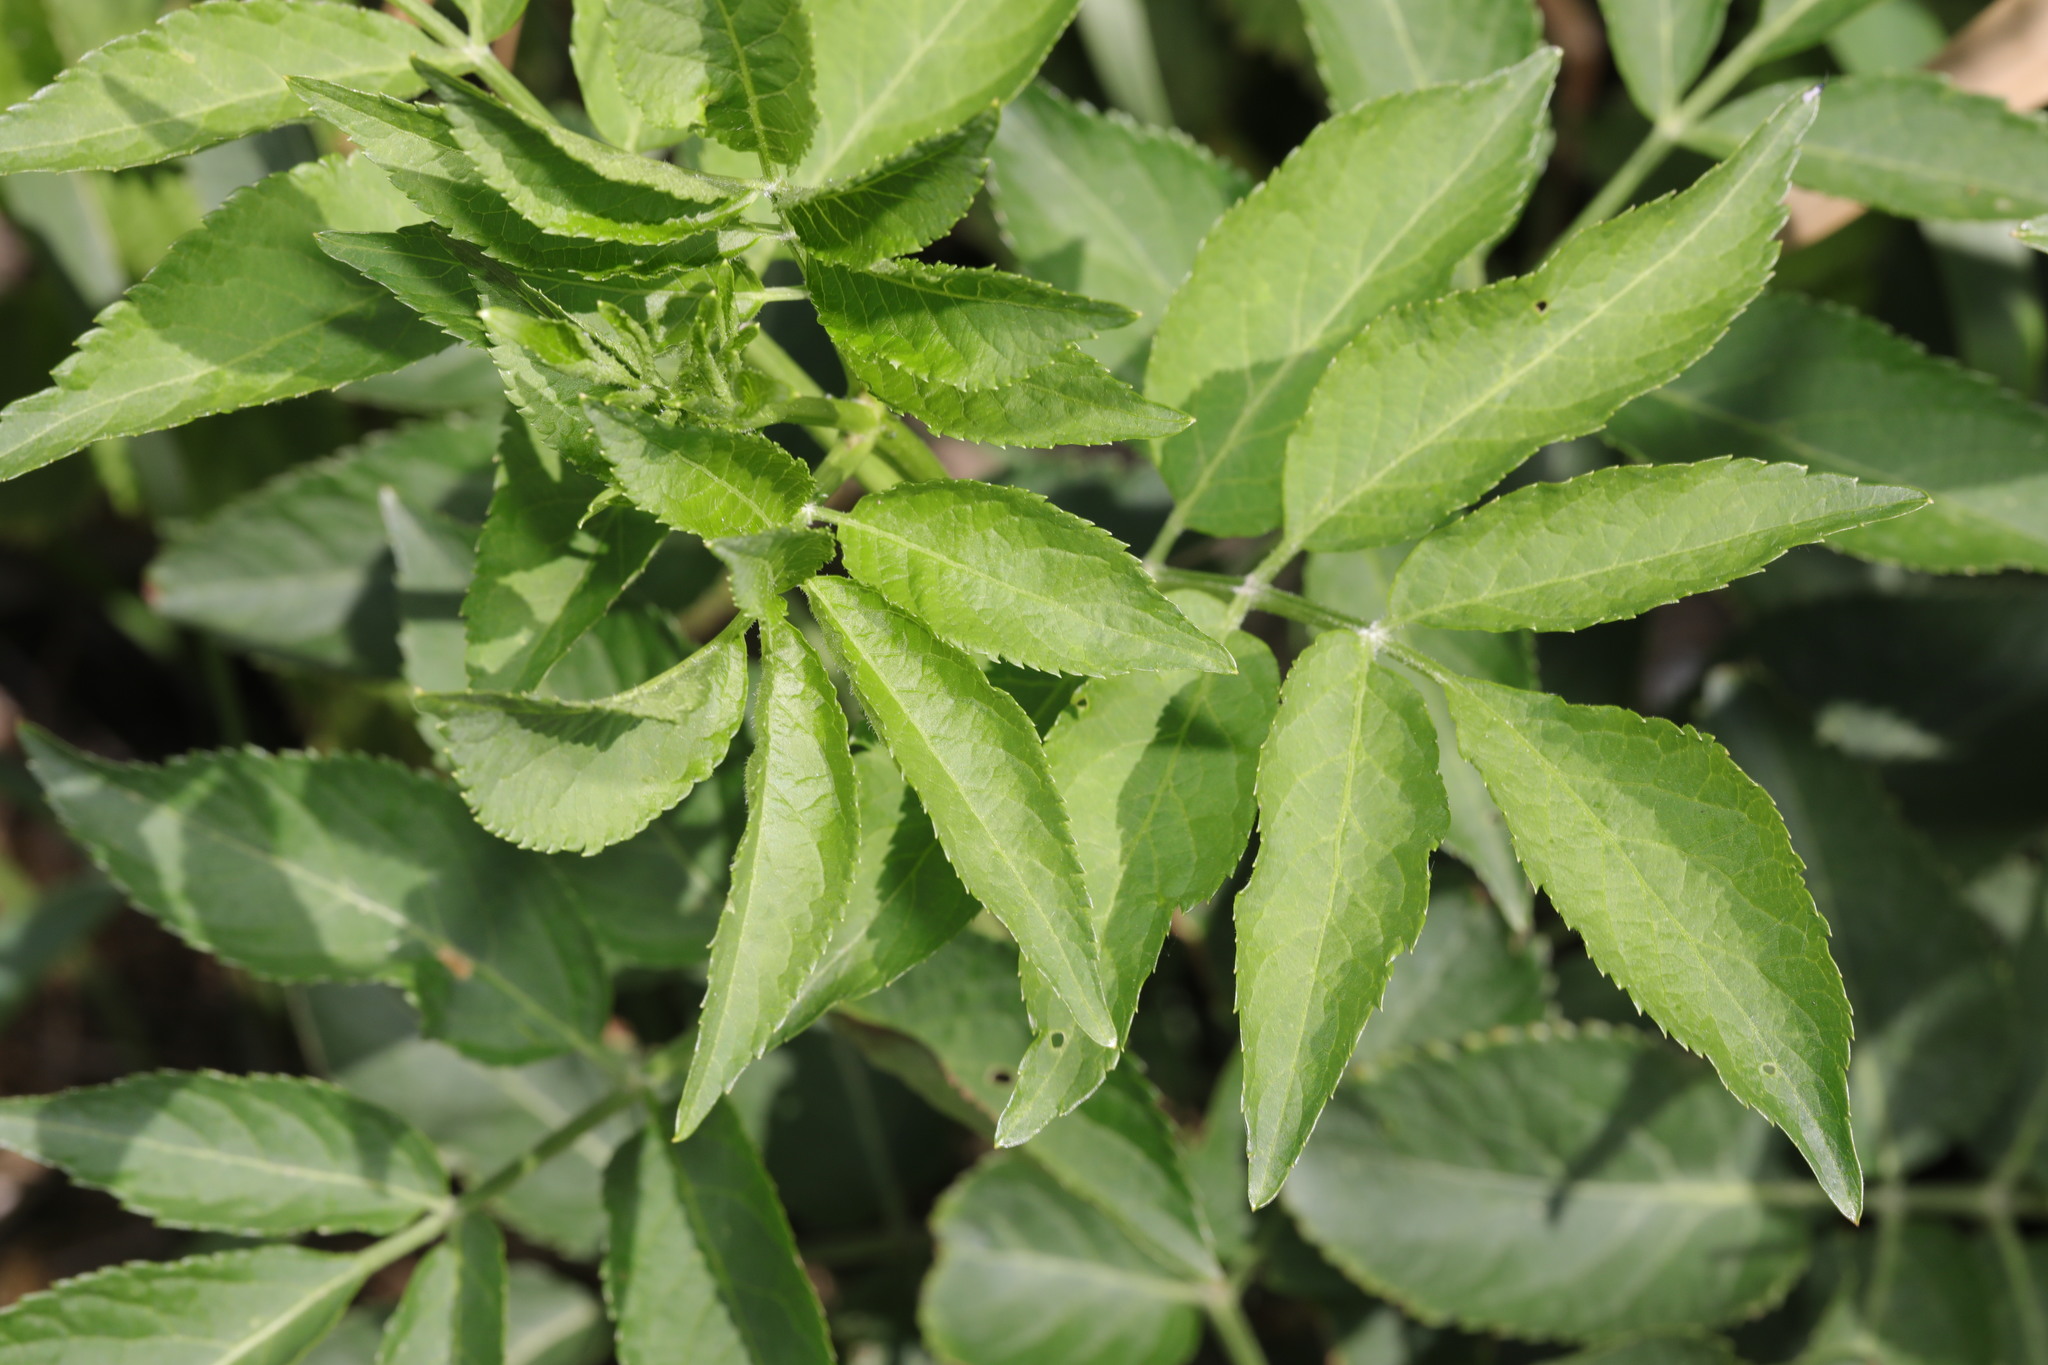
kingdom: Plantae
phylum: Tracheophyta
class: Magnoliopsida
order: Dipsacales
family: Viburnaceae
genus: Sambucus
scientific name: Sambucus nigra
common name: Elder
